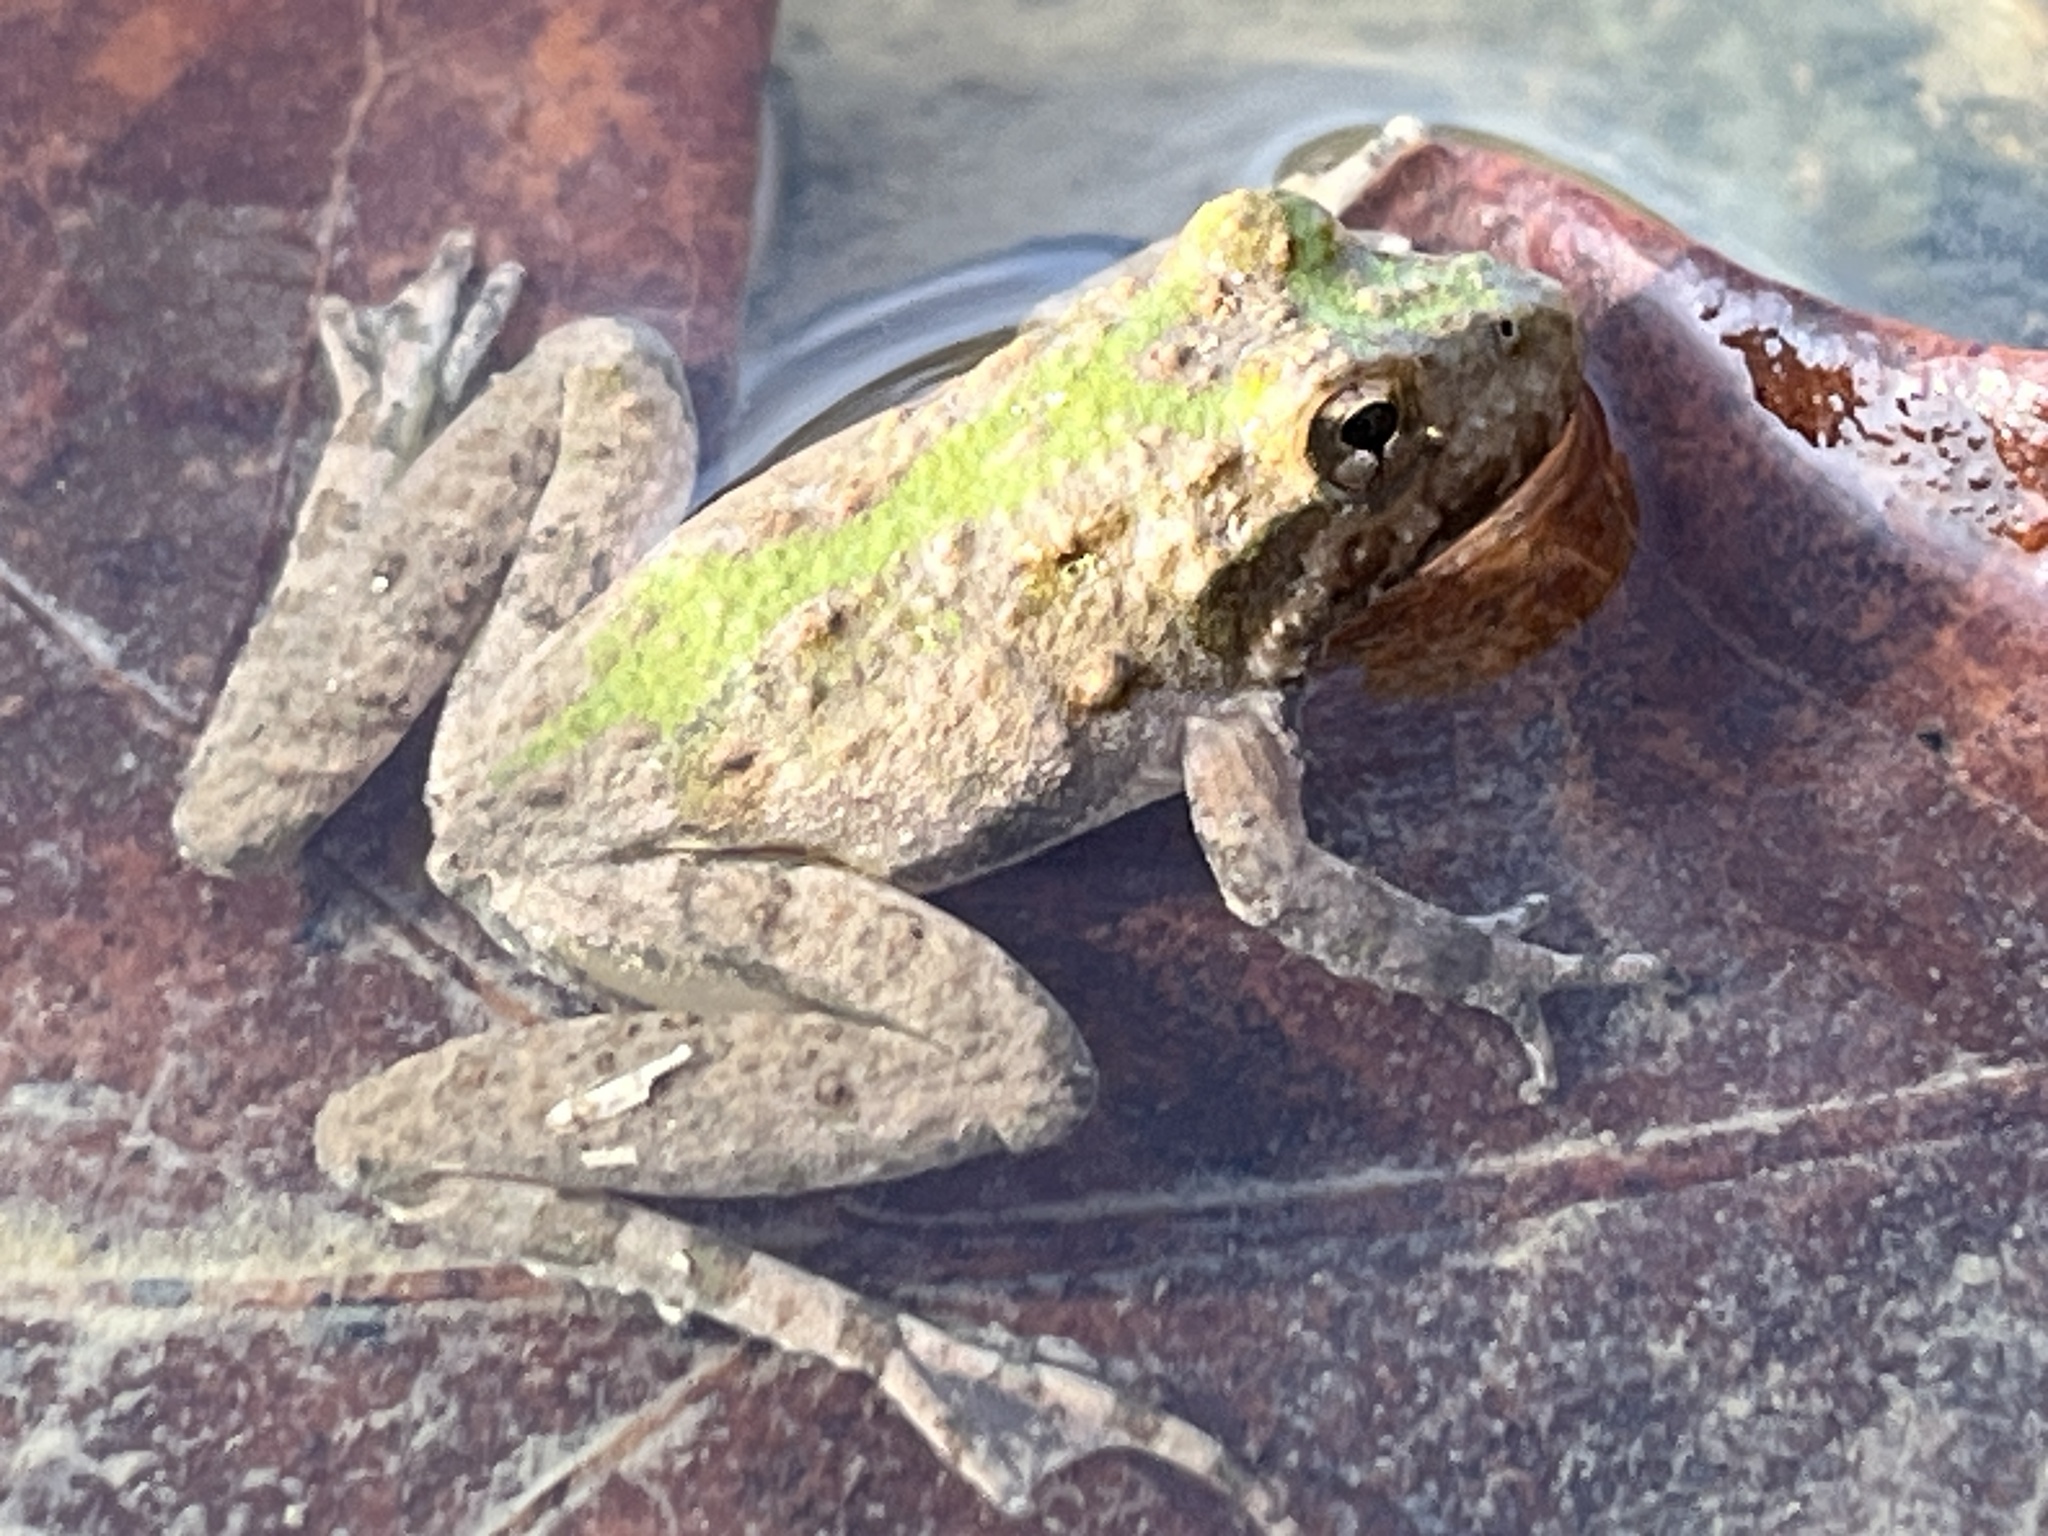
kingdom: Animalia
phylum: Chordata
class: Amphibia
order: Anura
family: Hylidae
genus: Acris
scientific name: Acris blanchardi
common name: Blanchard's cricket frog
